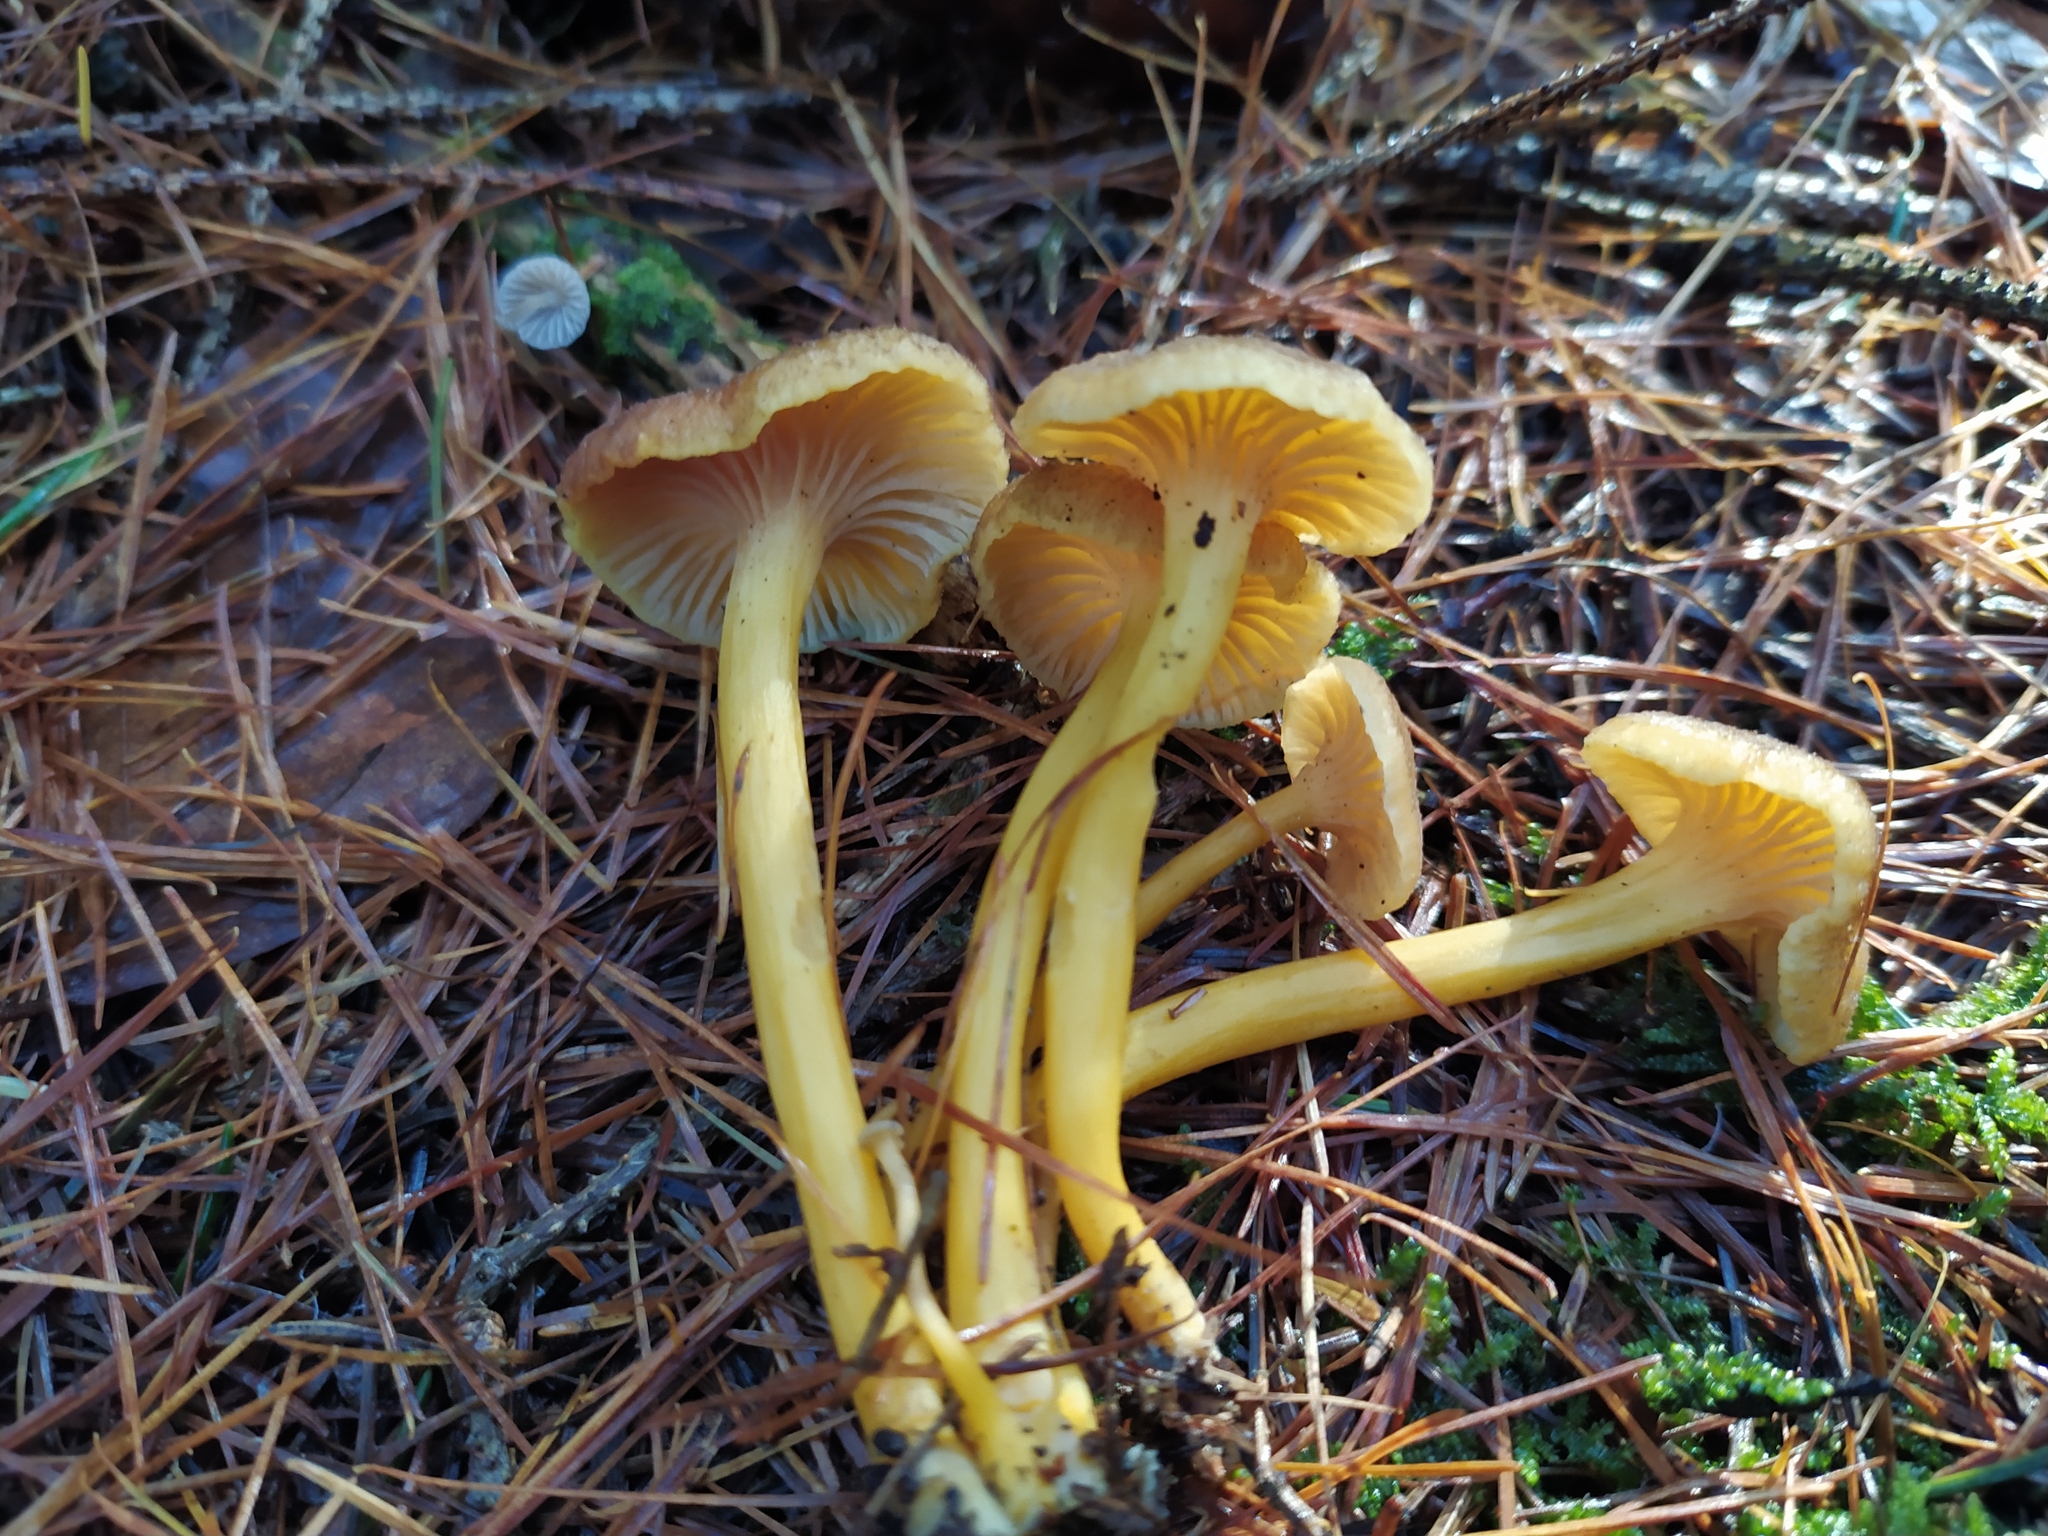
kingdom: Fungi
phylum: Basidiomycota
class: Agaricomycetes
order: Cantharellales
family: Hydnaceae
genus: Craterellus
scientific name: Craterellus tubaeformis
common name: Yellowfoot
